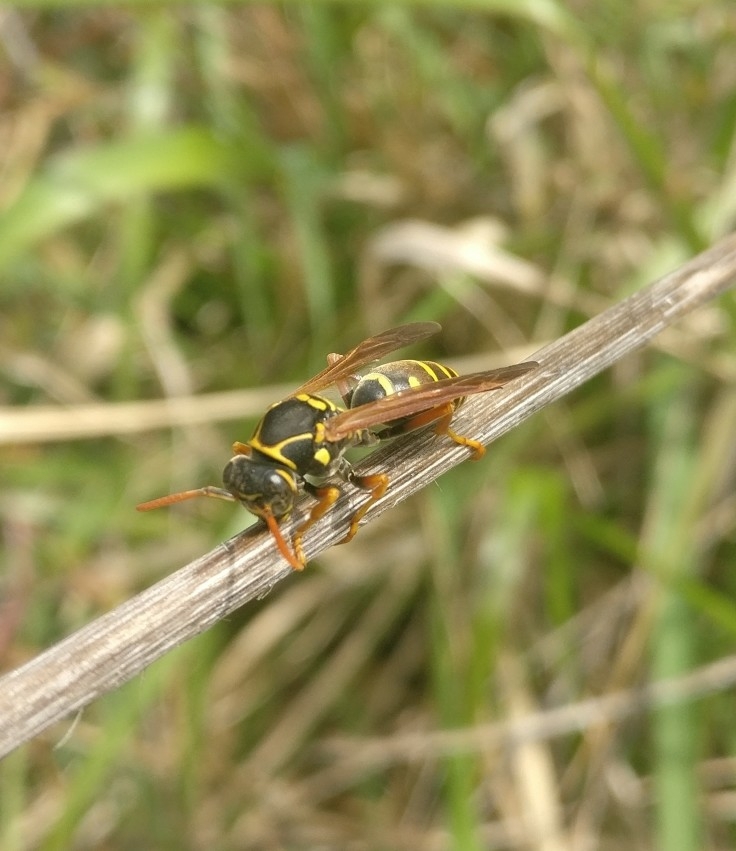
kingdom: Animalia
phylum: Arthropoda
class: Insecta
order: Hymenoptera
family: Eumenidae
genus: Polistes
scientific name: Polistes chinensis
